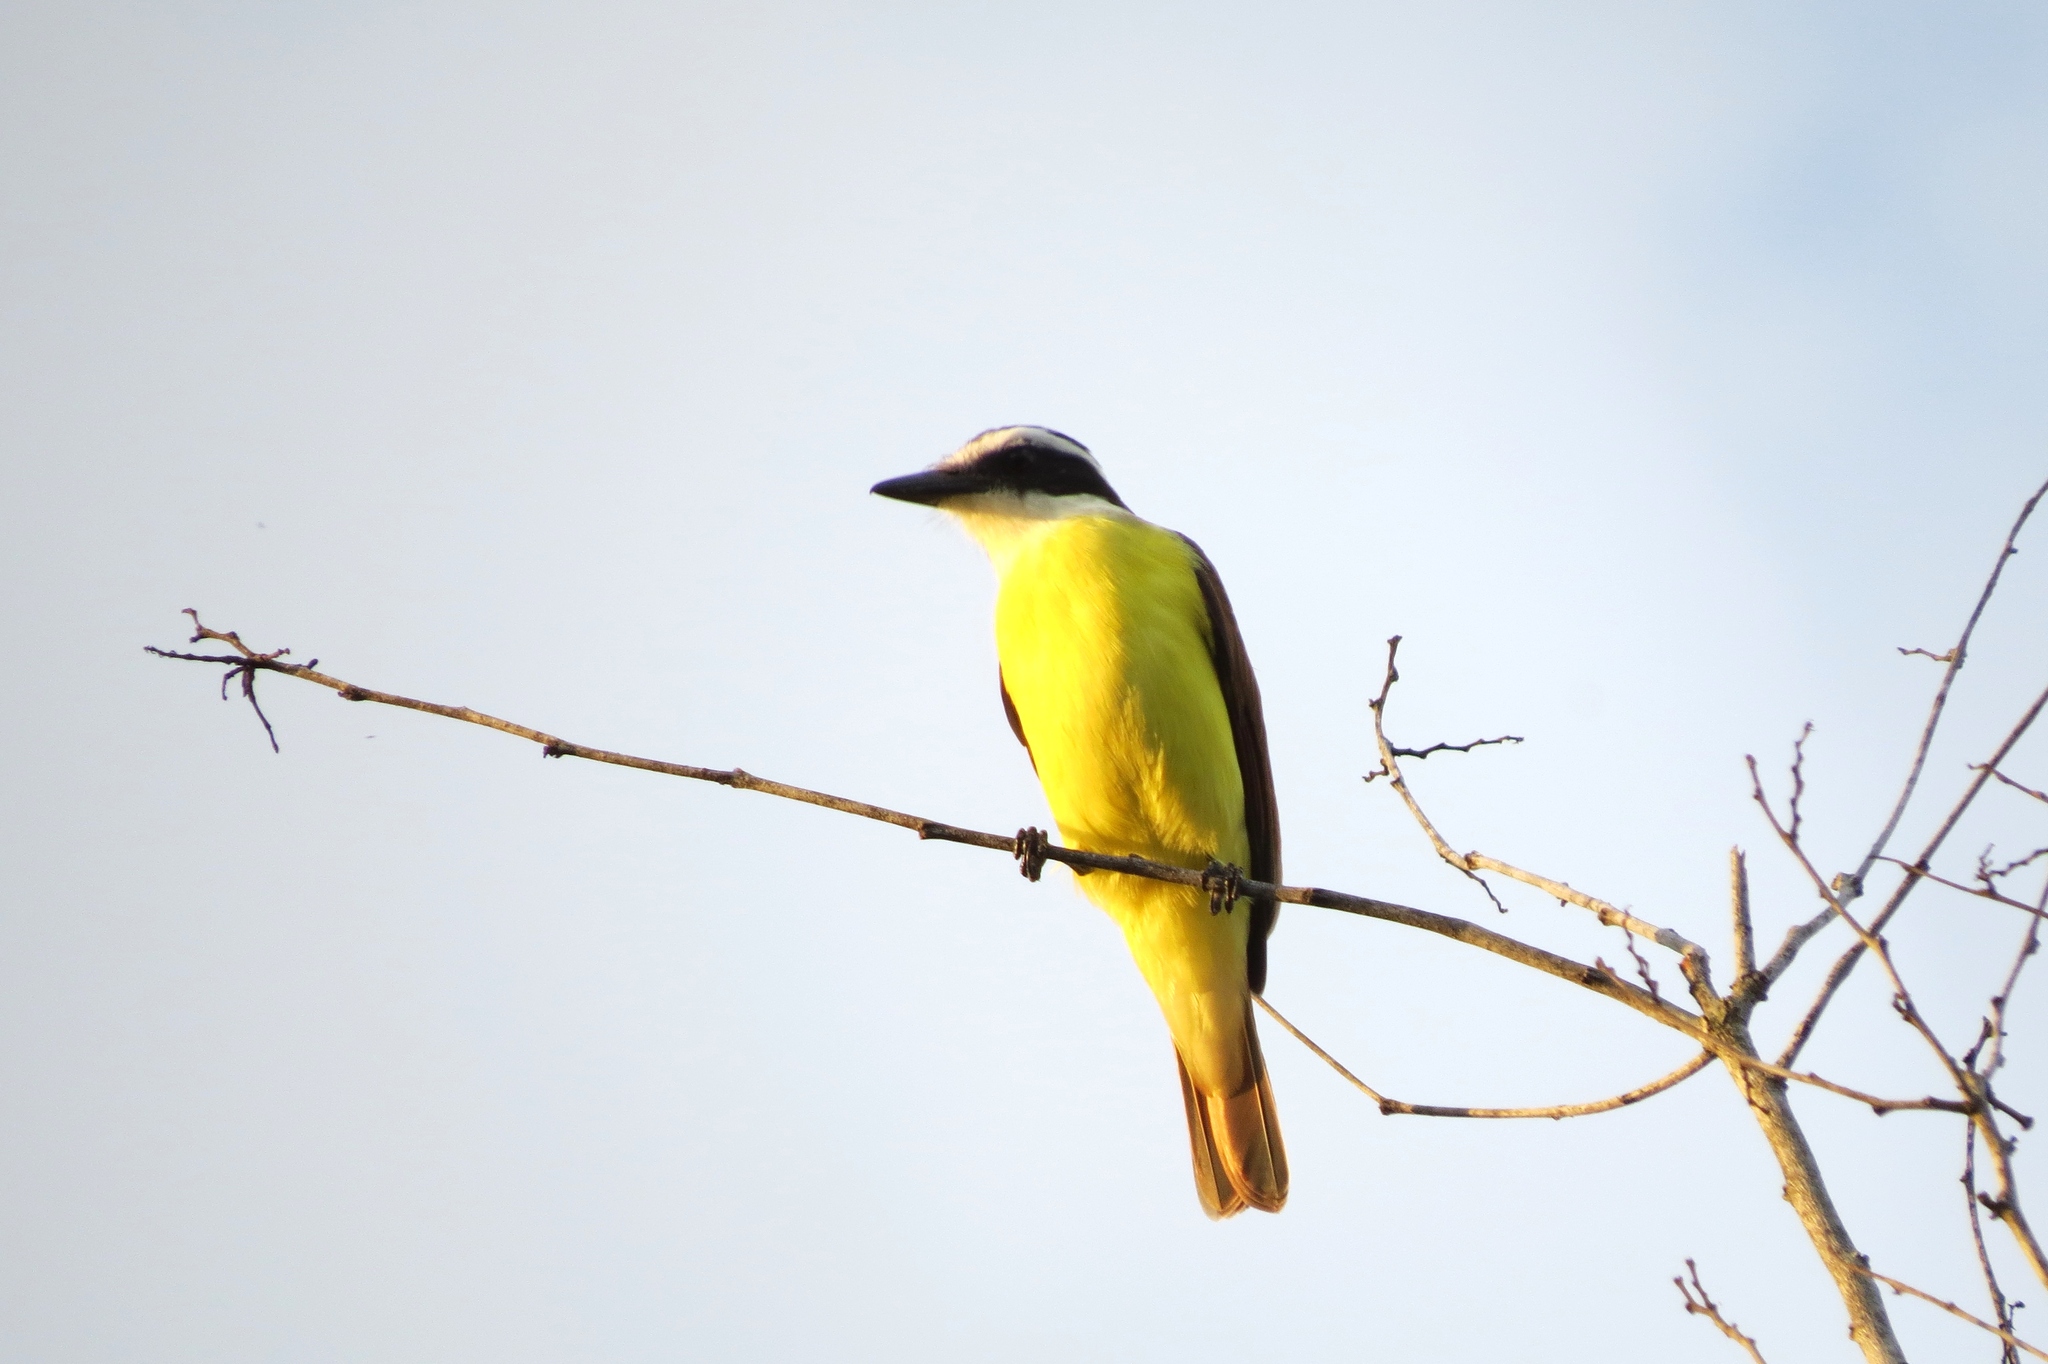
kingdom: Animalia
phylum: Chordata
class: Aves
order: Passeriformes
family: Tyrannidae
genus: Pitangus
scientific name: Pitangus sulphuratus
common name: Great kiskadee
